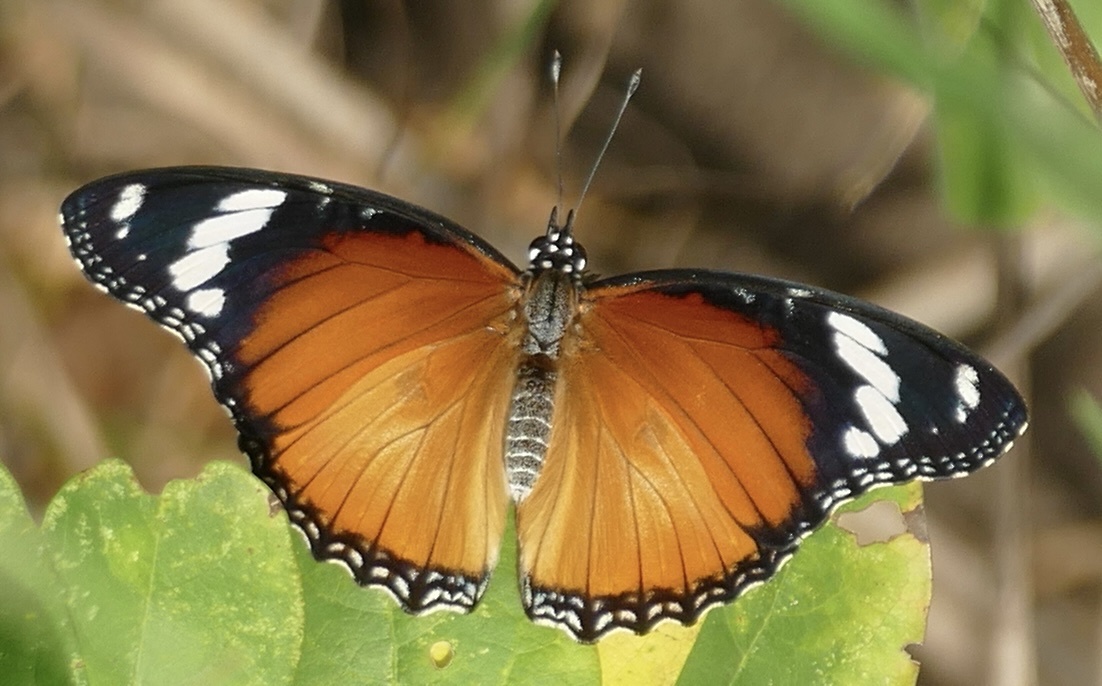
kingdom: Animalia
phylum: Arthropoda
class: Insecta
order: Lepidoptera
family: Nymphalidae
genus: Hypolimnas
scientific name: Hypolimnas misippus
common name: False plain tiger
